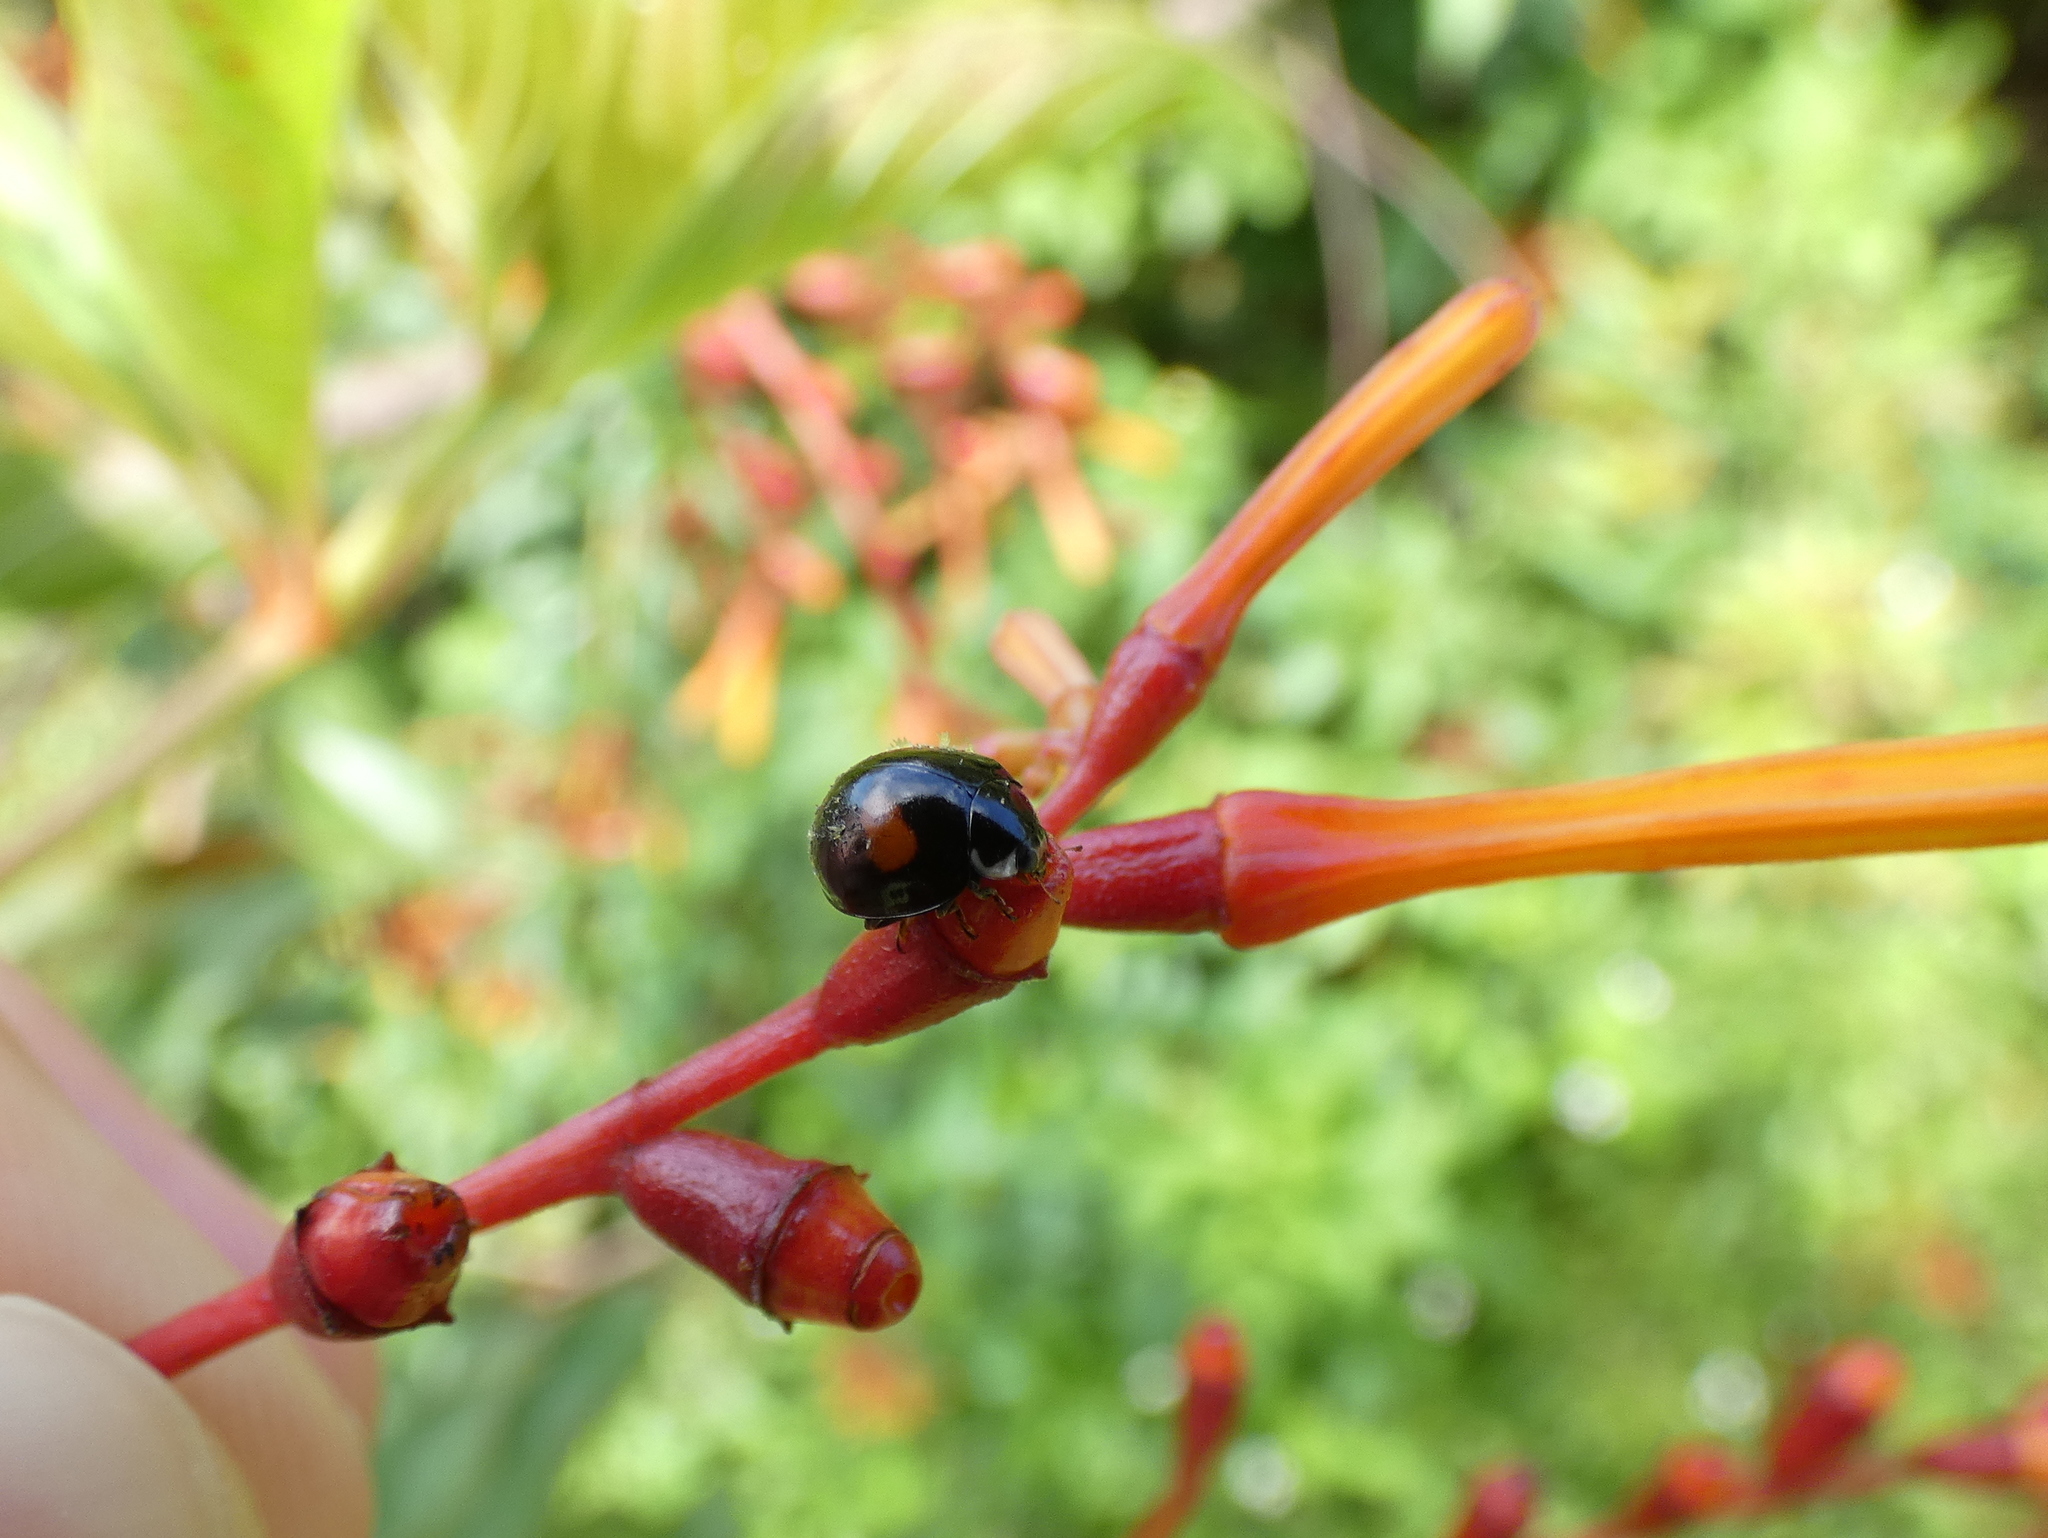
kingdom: Animalia
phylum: Arthropoda
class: Insecta
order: Coleoptera
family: Coccinellidae
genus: Olla
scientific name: Olla v-nigrum
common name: Ashy gray lady beetle
